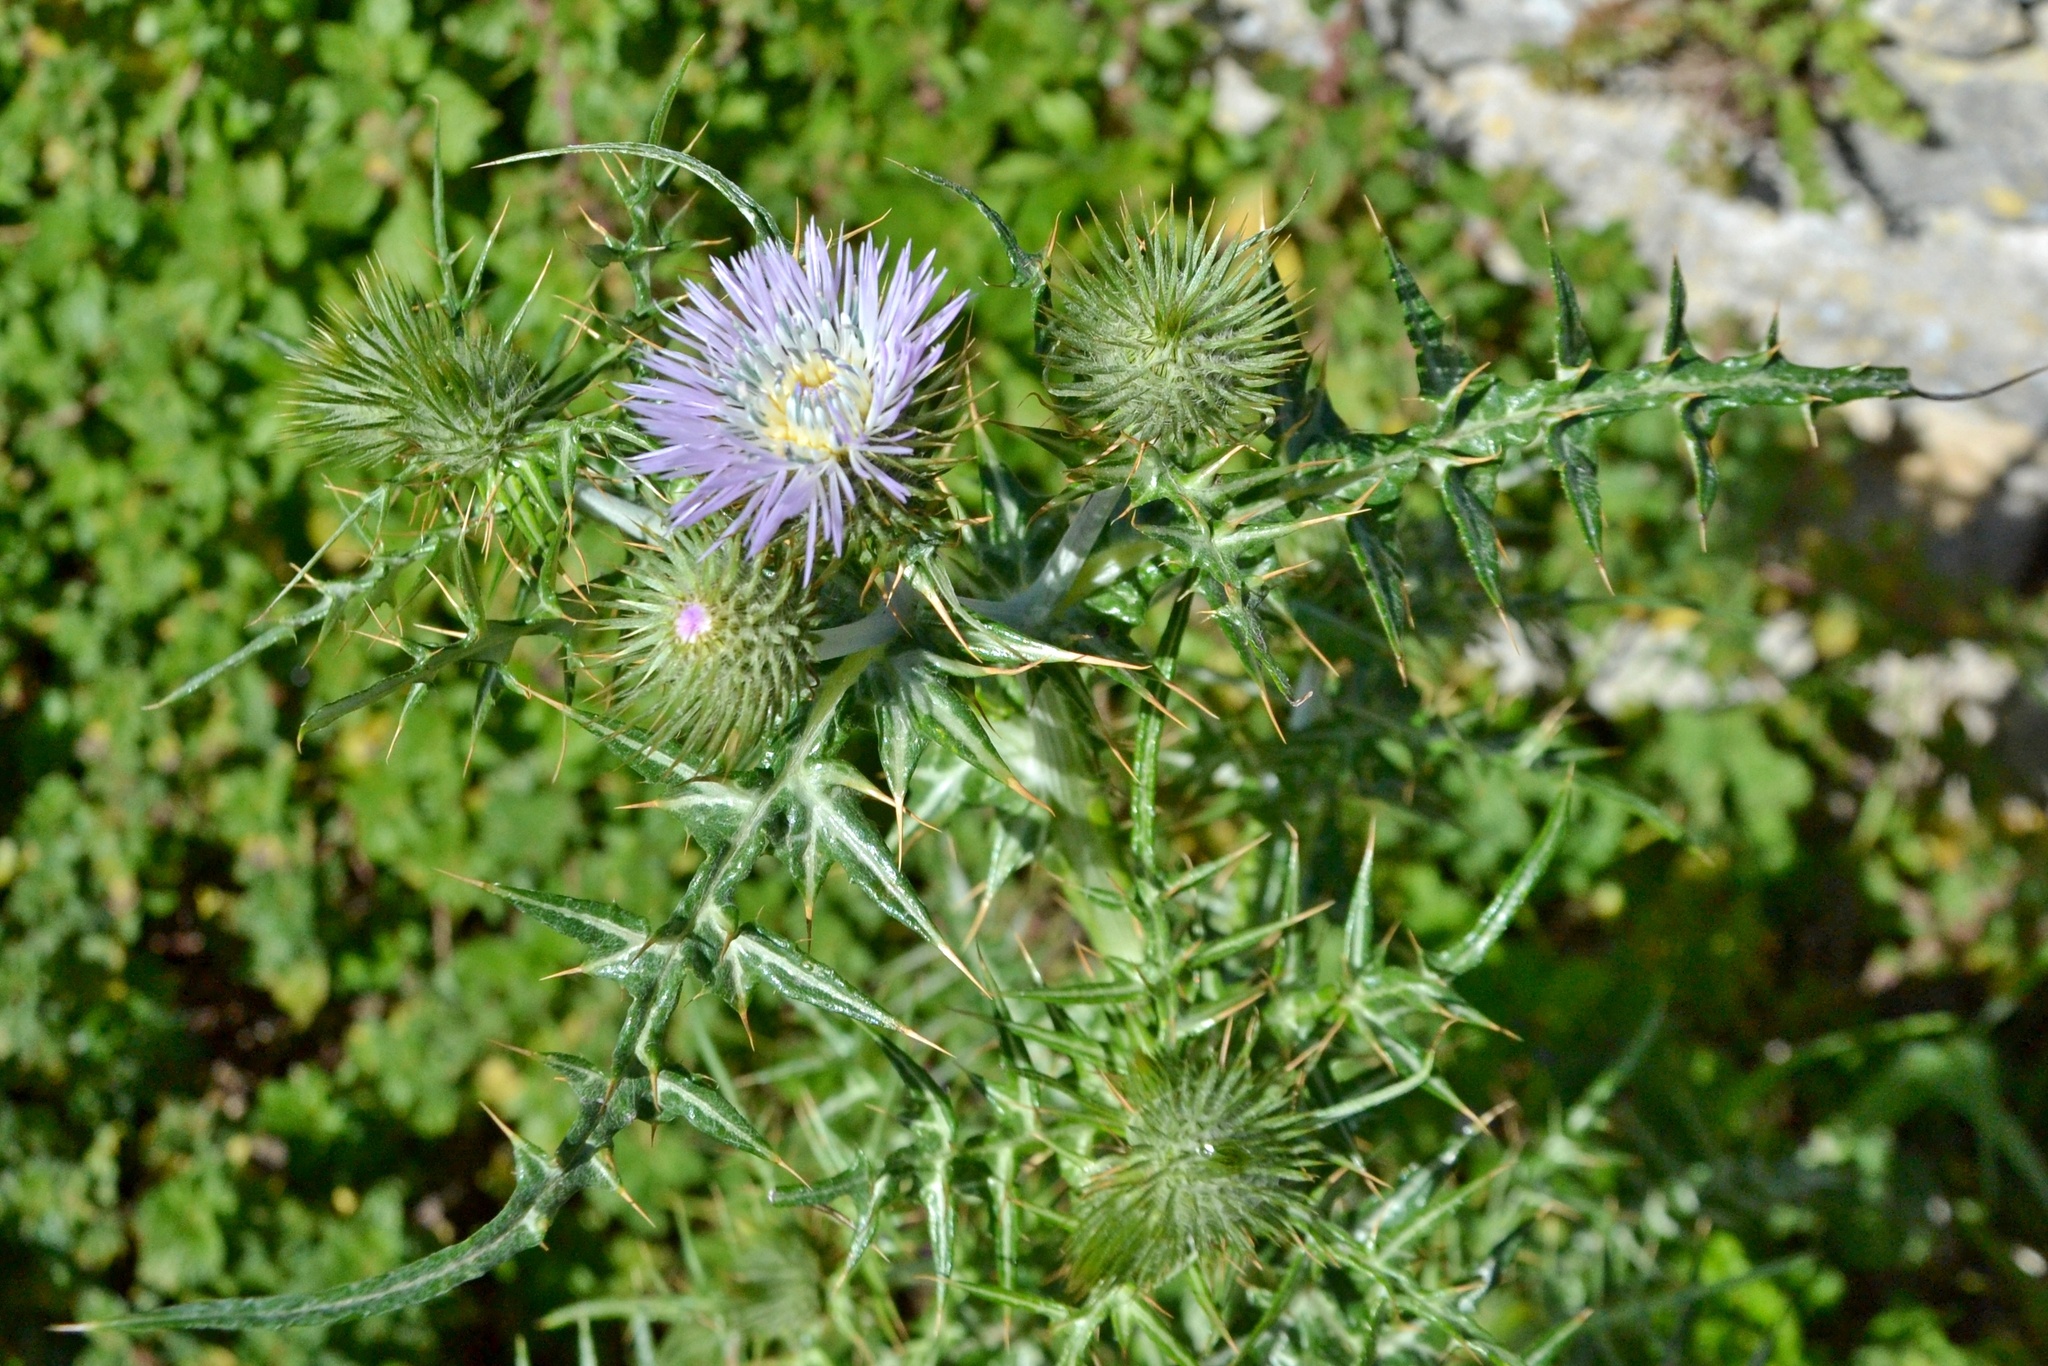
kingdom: Plantae
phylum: Tracheophyta
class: Magnoliopsida
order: Asterales
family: Asteraceae
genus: Galactites
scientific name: Galactites tomentosa
